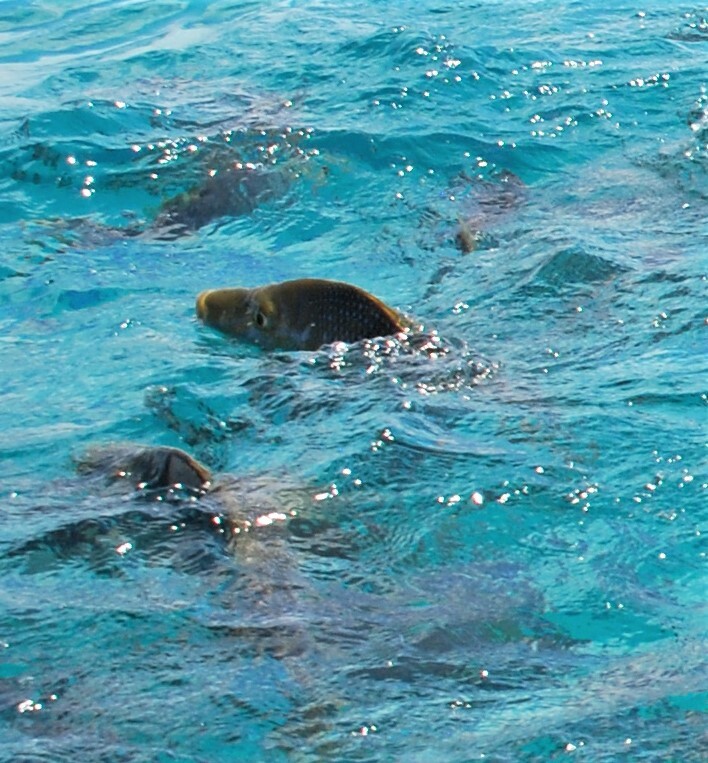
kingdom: Animalia
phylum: Chordata
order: Perciformes
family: Lethrinidae
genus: Lethrinus
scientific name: Lethrinus nebulosus
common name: Spangled emperor
